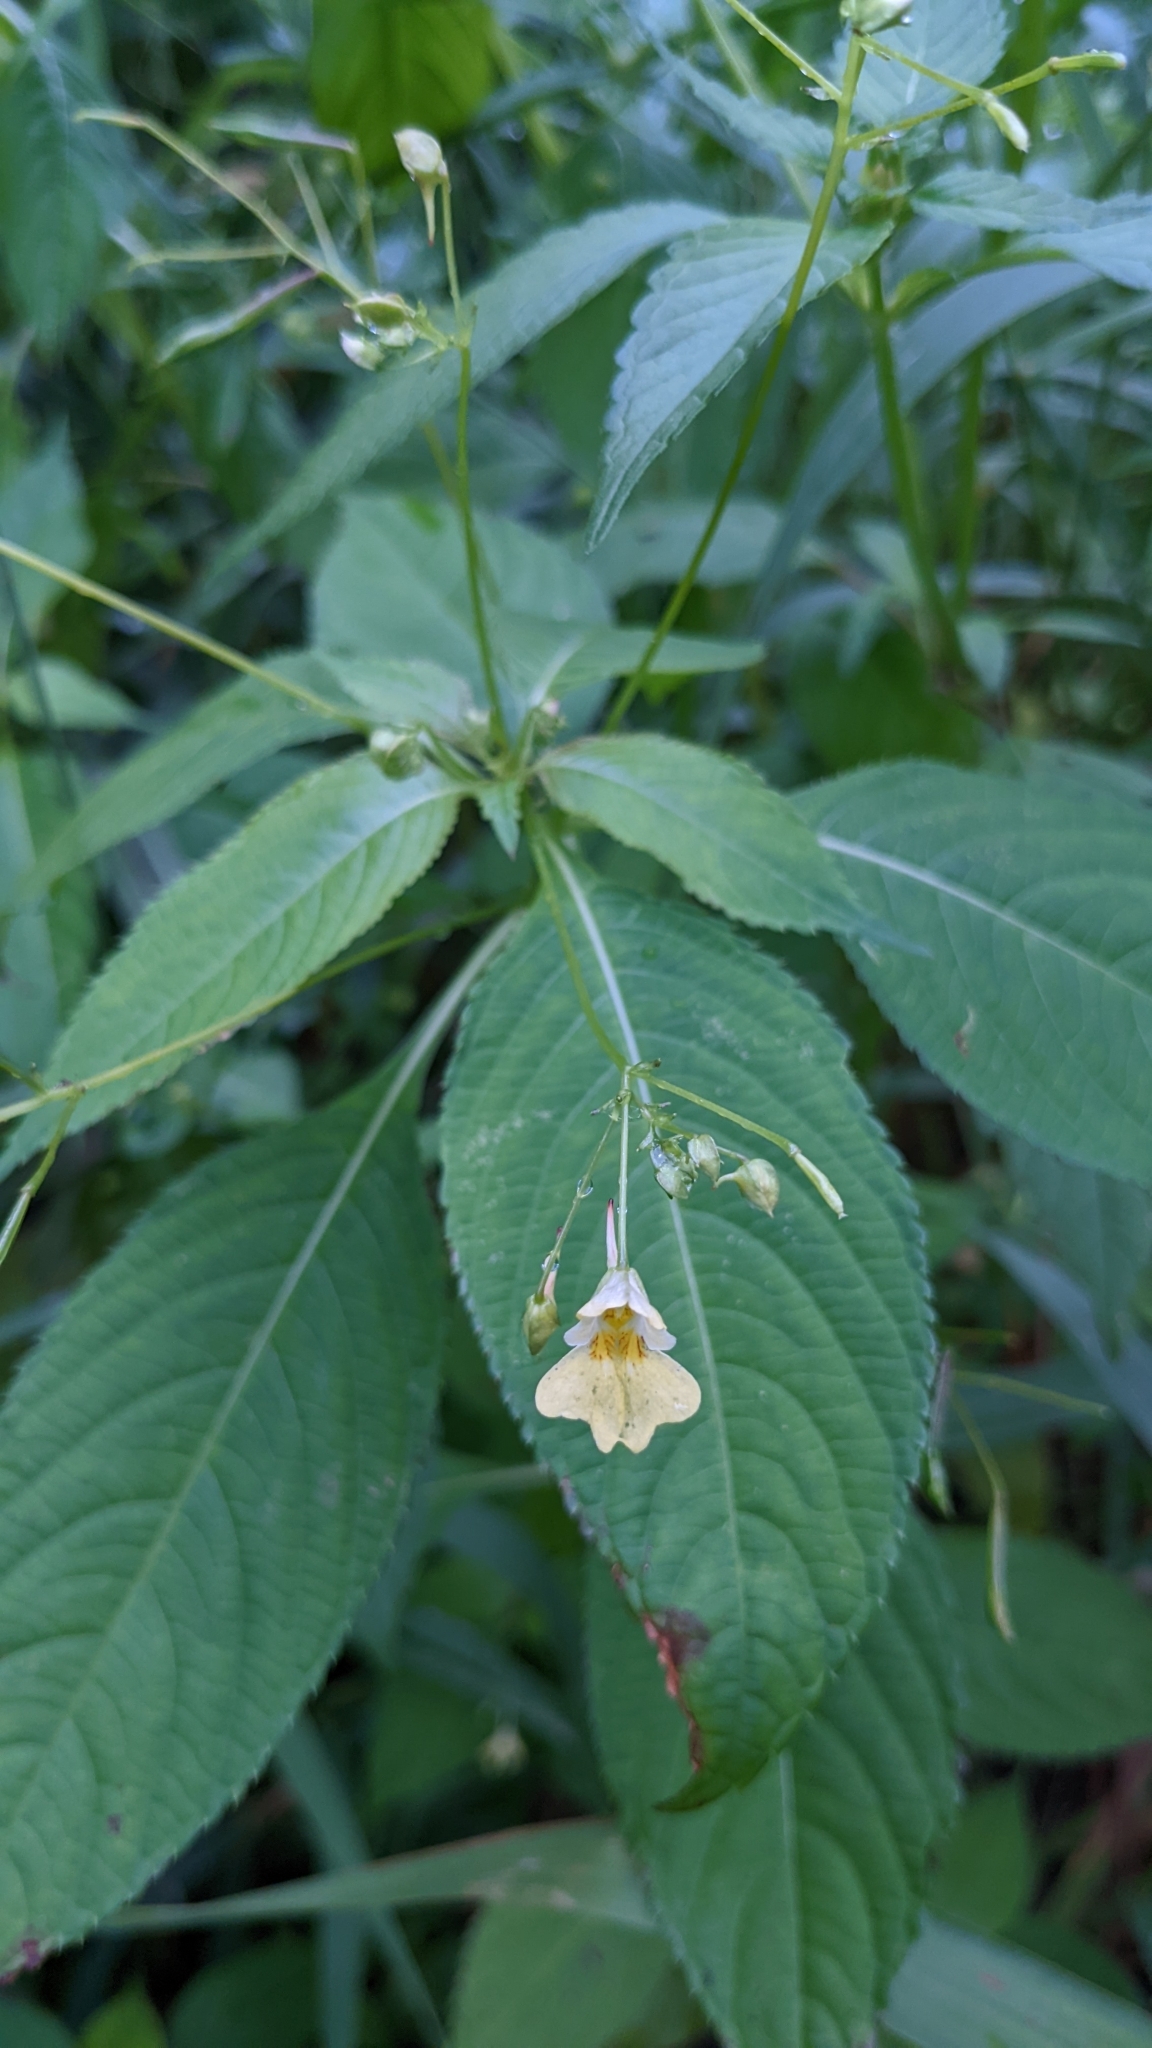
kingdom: Plantae
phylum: Tracheophyta
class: Magnoliopsida
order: Ericales
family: Balsaminaceae
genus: Impatiens
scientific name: Impatiens parviflora
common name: Small balsam
